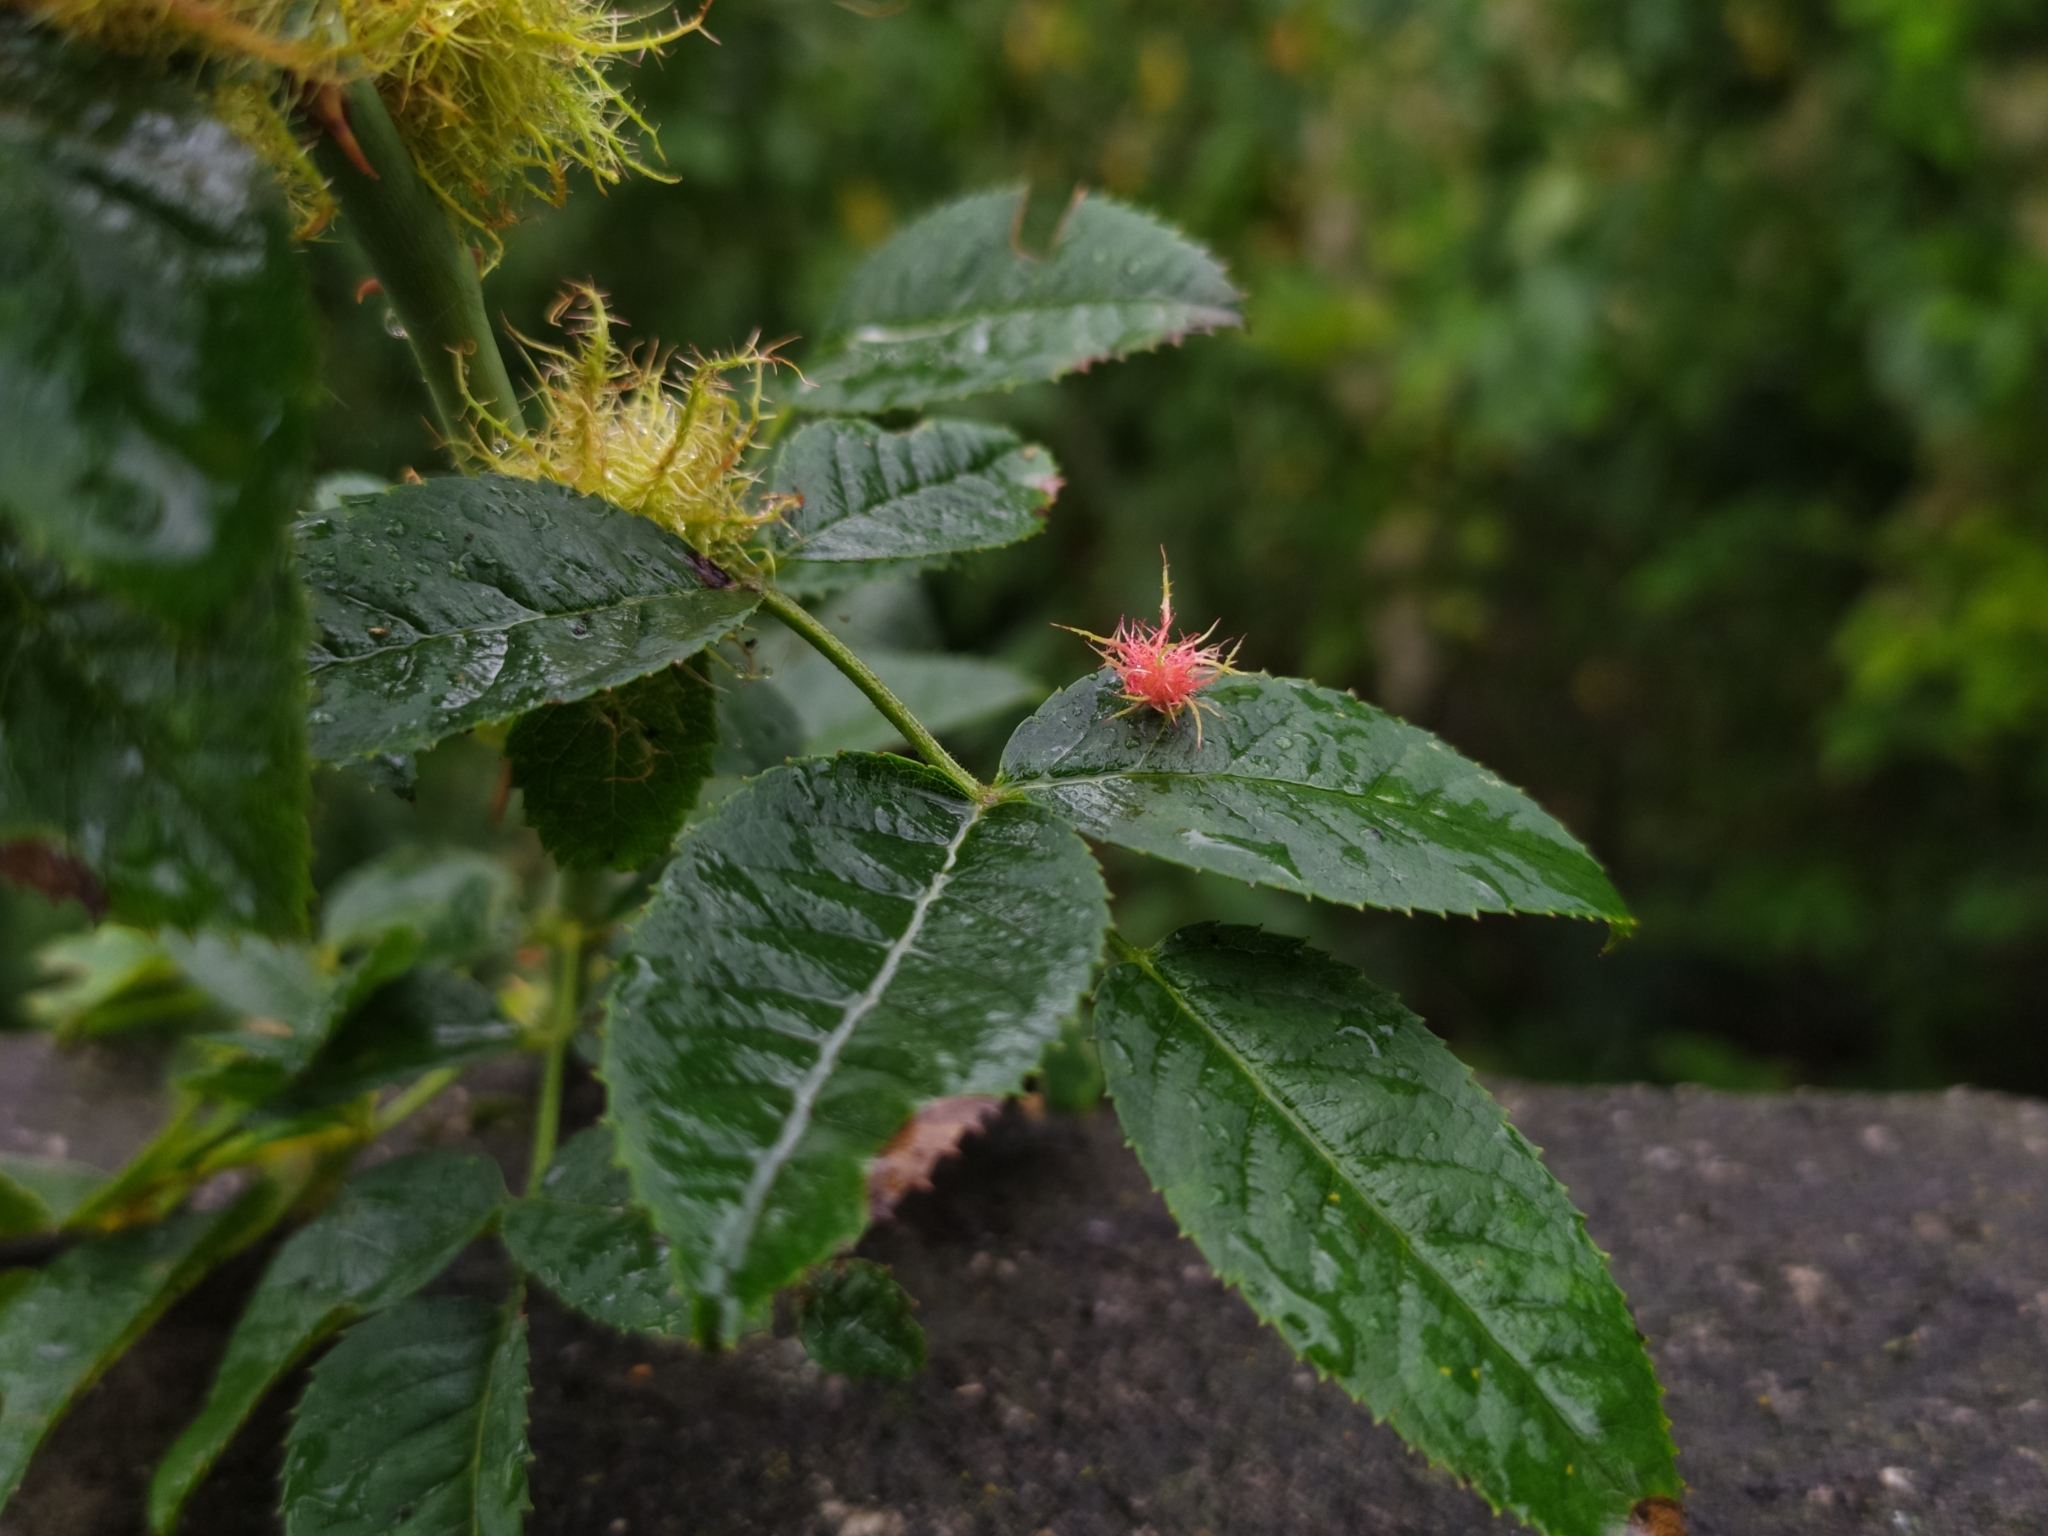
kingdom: Animalia
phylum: Arthropoda
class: Insecta
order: Hymenoptera
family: Cynipidae
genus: Diplolepis
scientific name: Diplolepis rosae
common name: Bedeguar gall
